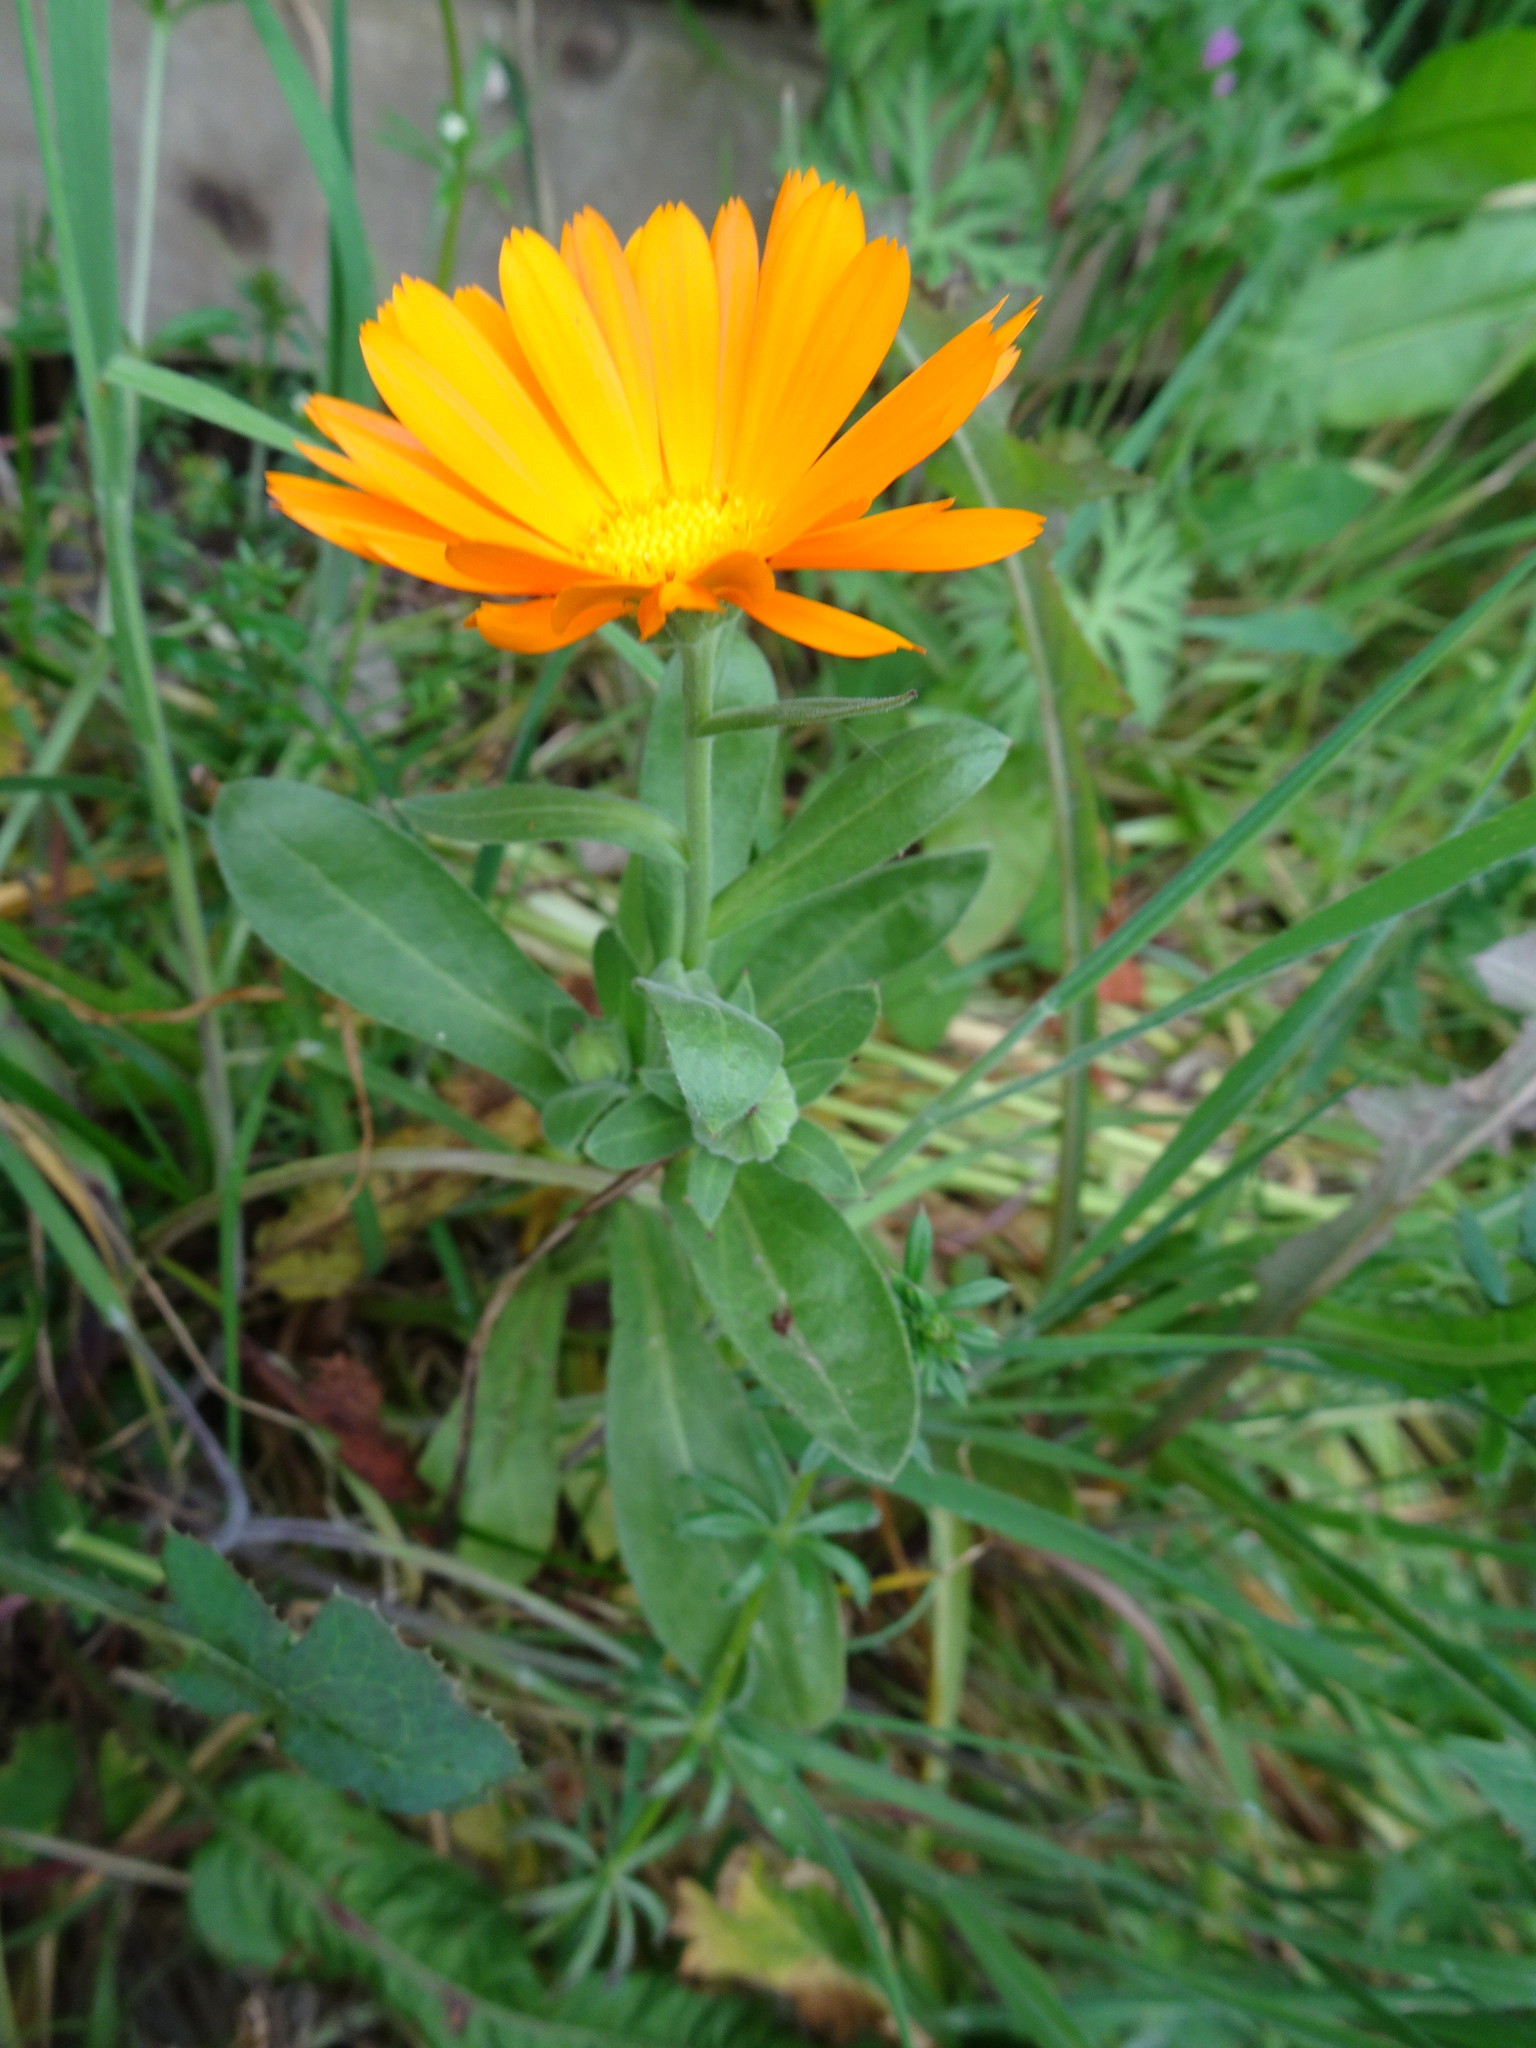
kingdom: Plantae
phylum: Tracheophyta
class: Magnoliopsida
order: Asterales
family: Asteraceae
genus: Calendula
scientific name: Calendula officinalis
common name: Pot marigold
